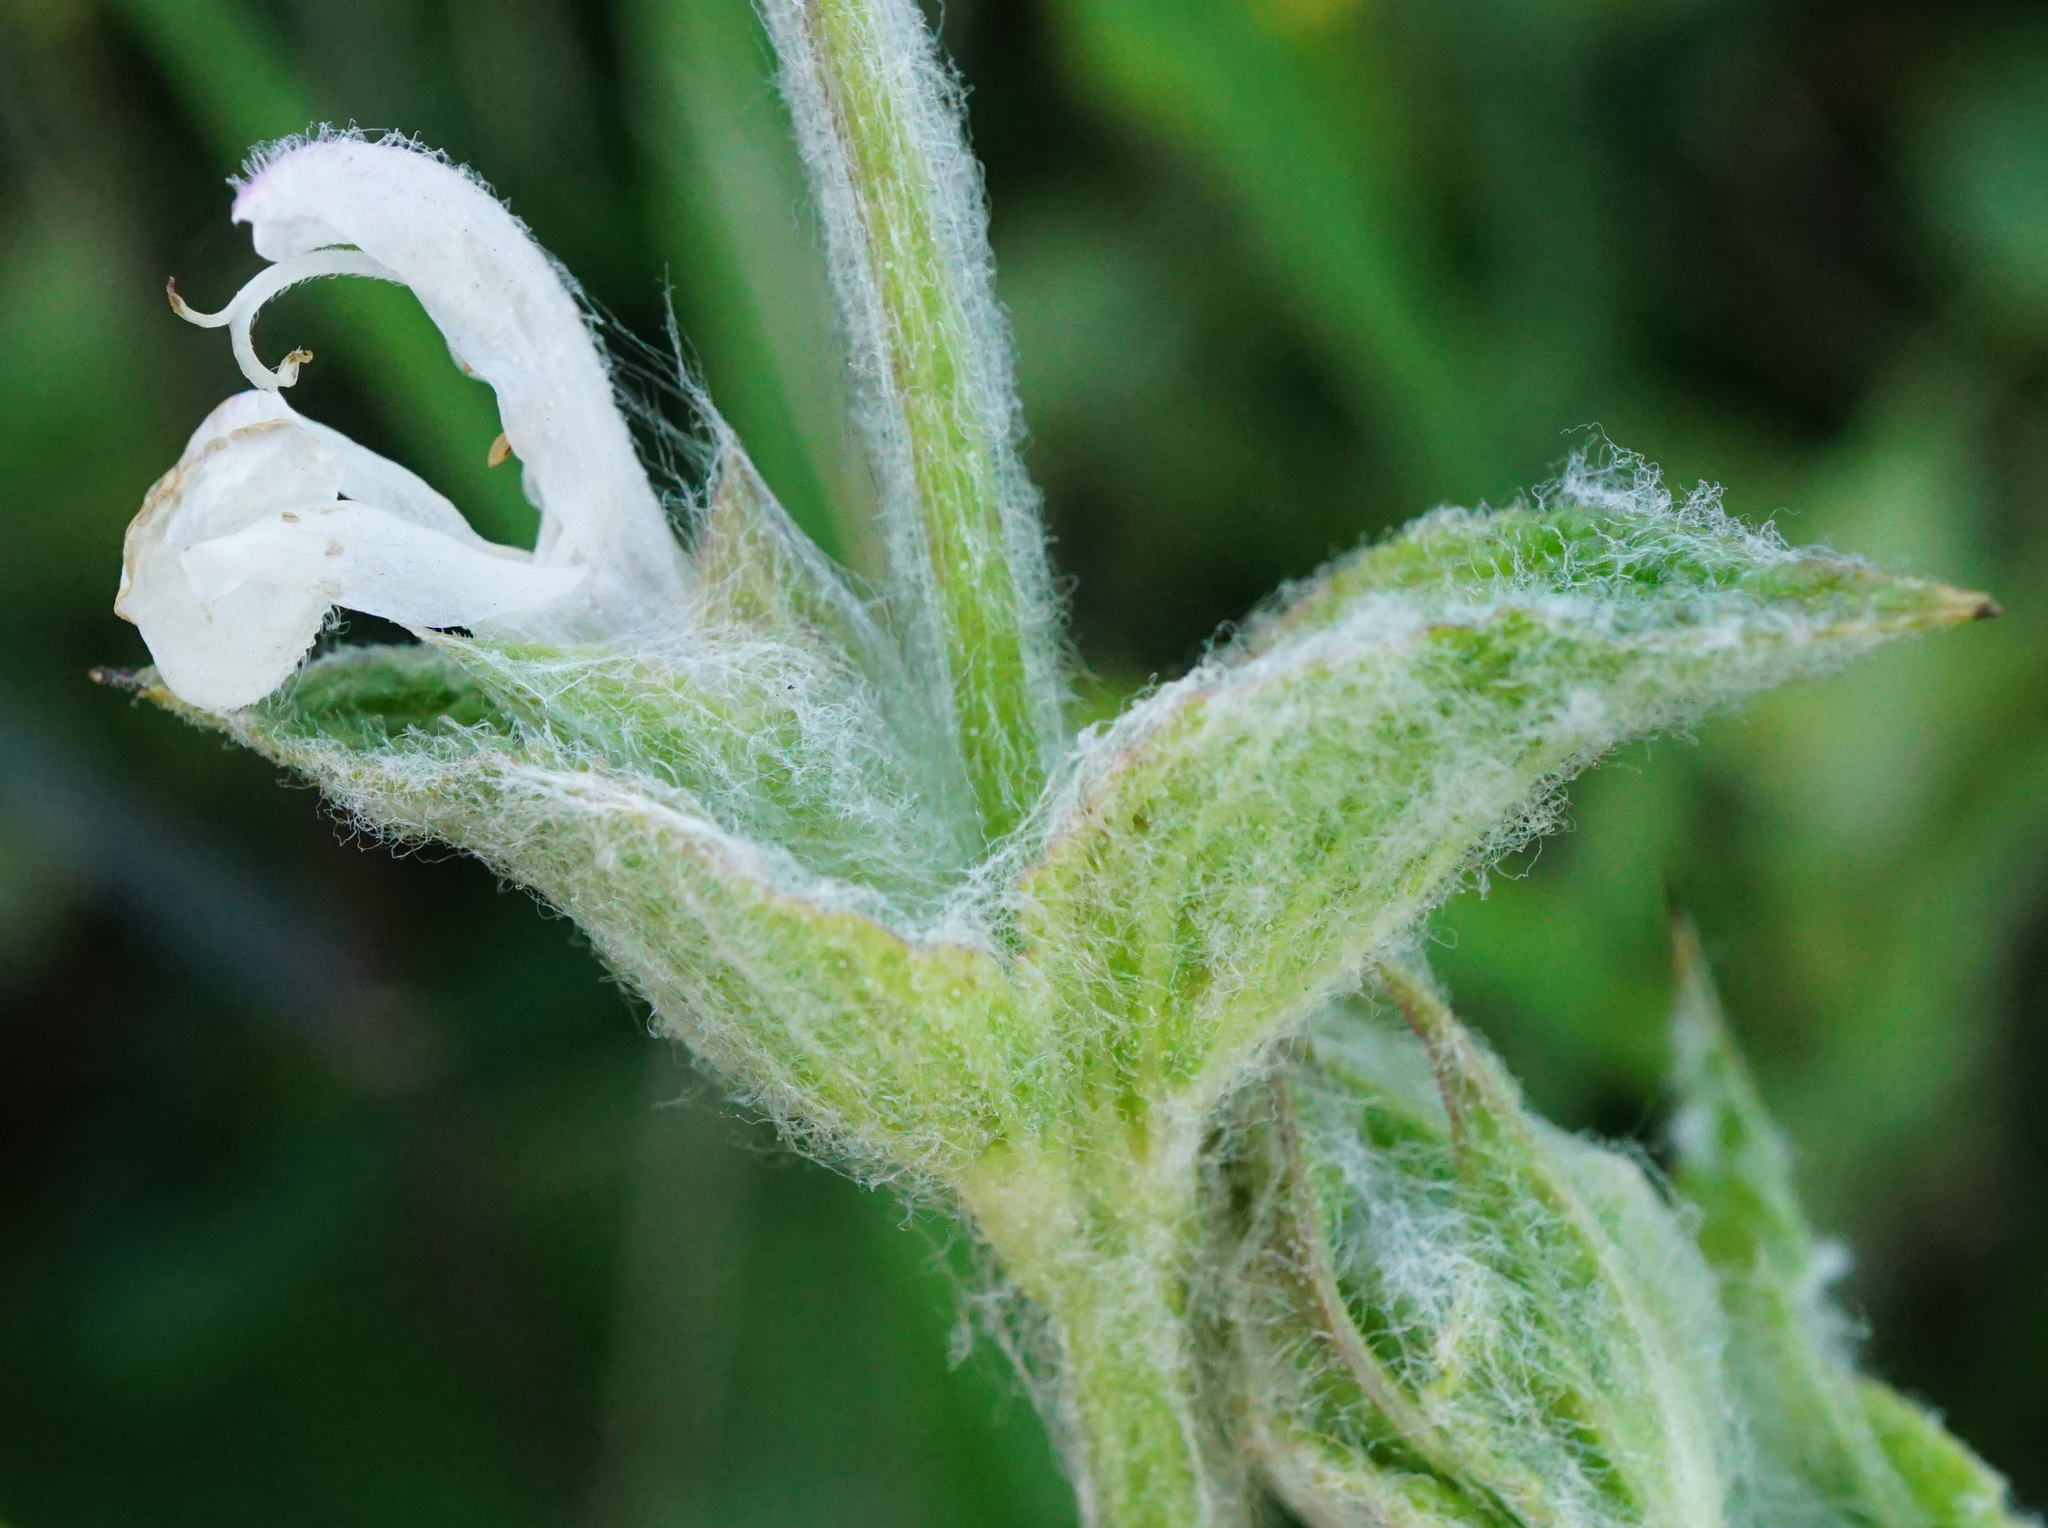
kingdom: Plantae
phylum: Tracheophyta
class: Magnoliopsida
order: Lamiales
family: Lamiaceae
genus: Salvia
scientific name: Salvia aethiopis
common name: Mediterranean sage
